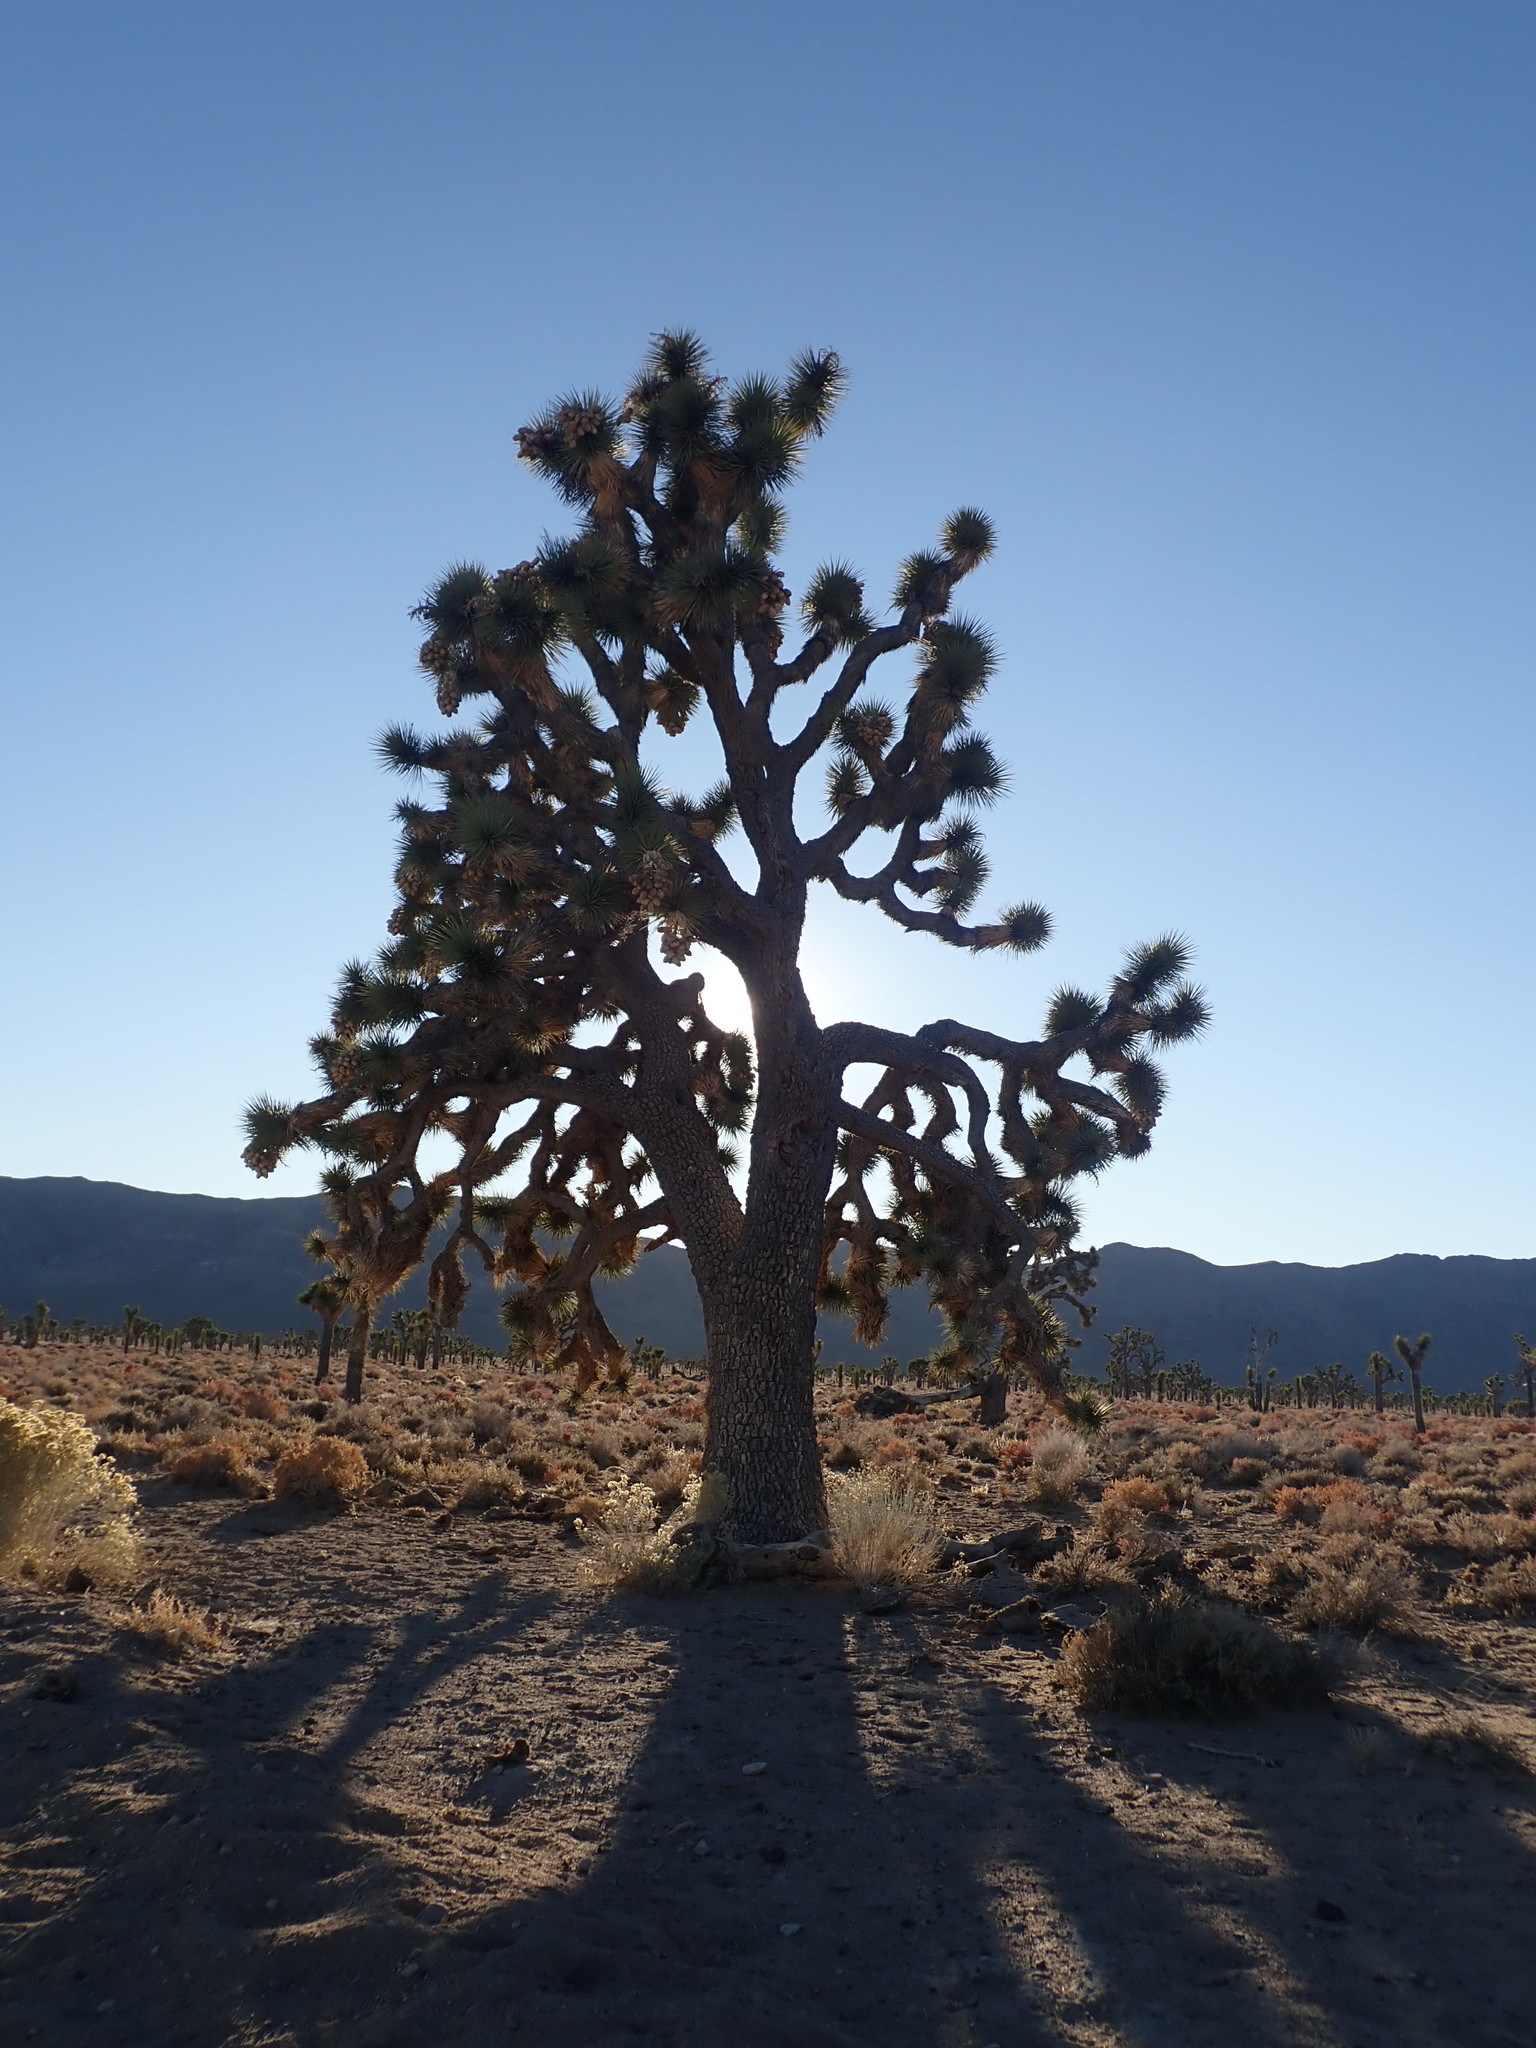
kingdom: Plantae
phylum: Tracheophyta
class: Liliopsida
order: Asparagales
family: Asparagaceae
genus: Yucca
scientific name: Yucca brevifolia
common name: Joshua tree
